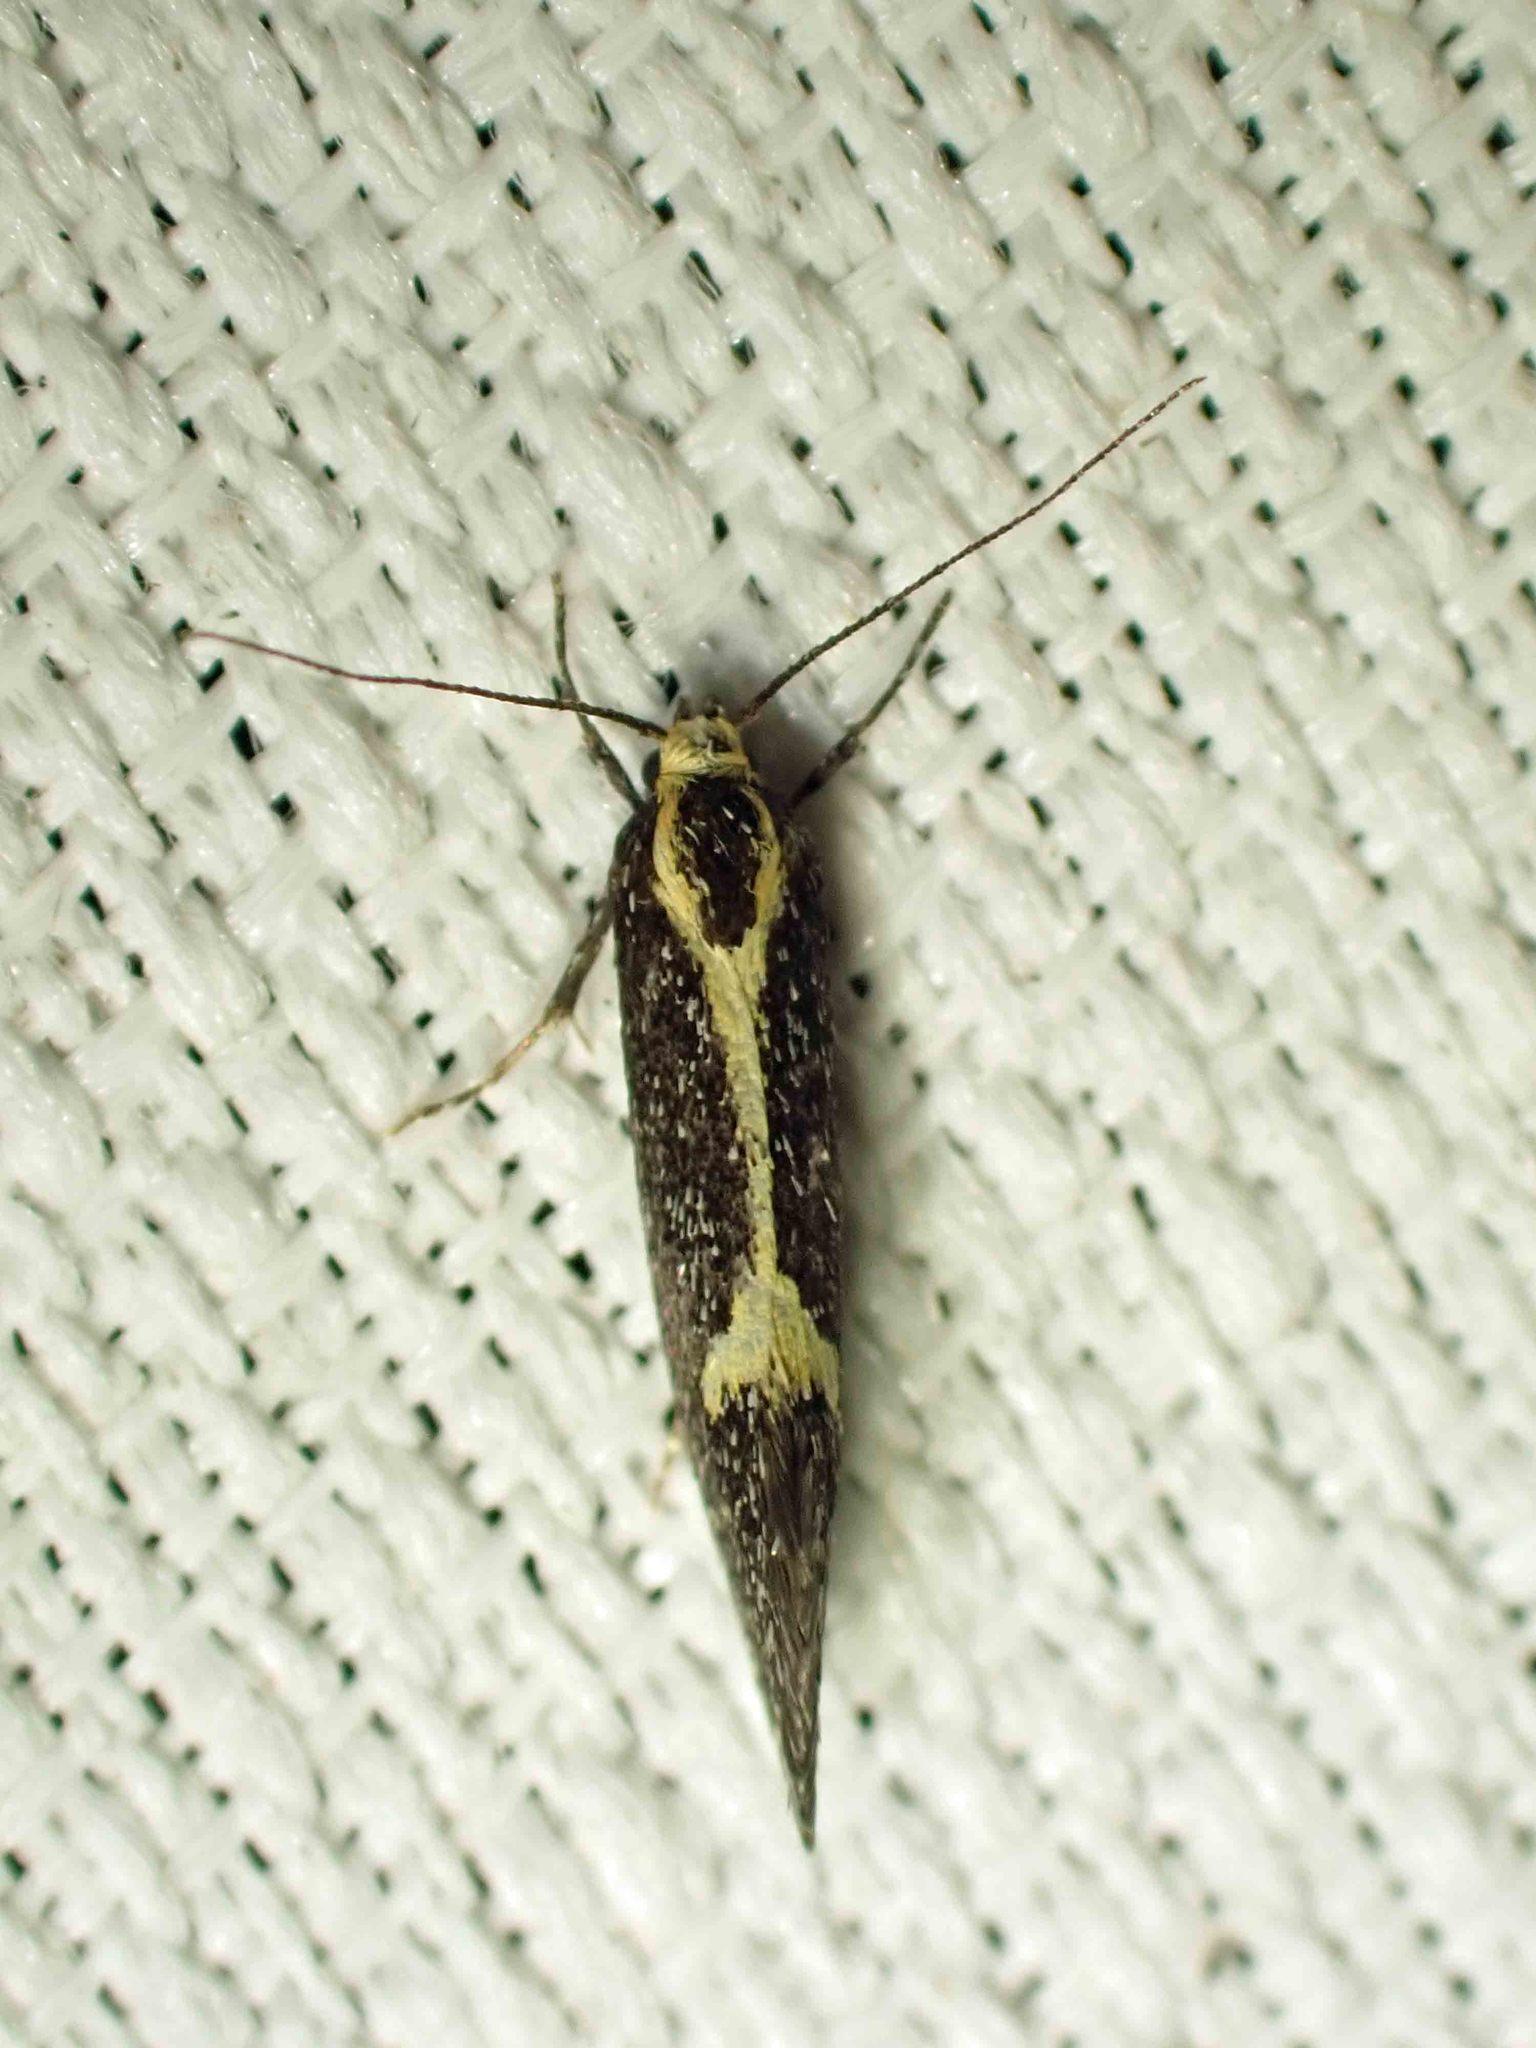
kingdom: Animalia
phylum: Arthropoda
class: Insecta
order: Lepidoptera
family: Oecophoridae
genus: Polix
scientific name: Polix coloradella
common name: Skunk moth
